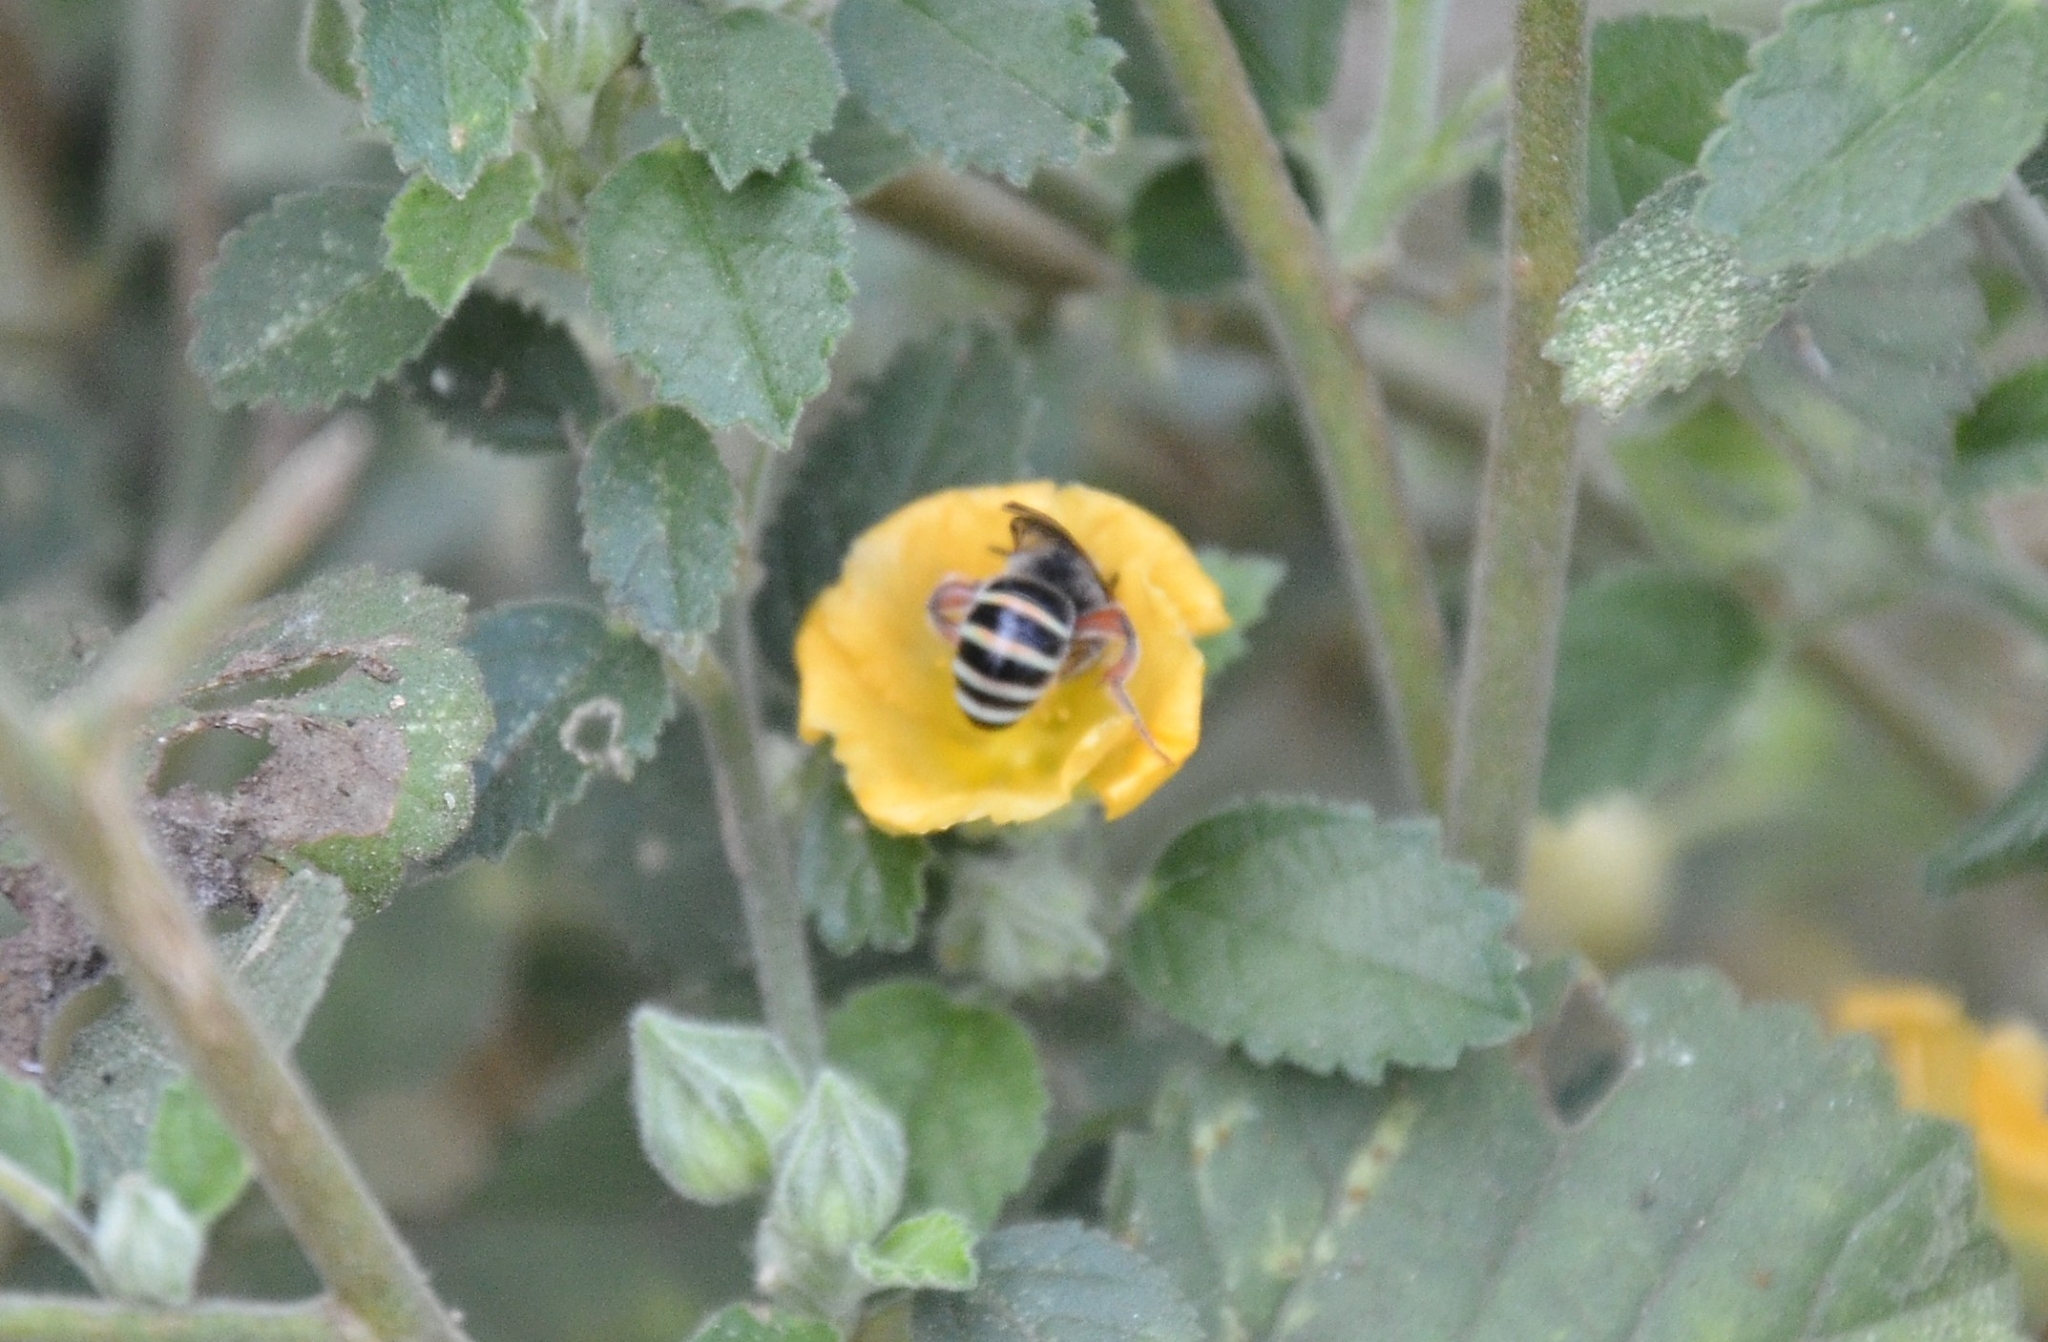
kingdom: Animalia
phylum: Arthropoda
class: Insecta
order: Hymenoptera
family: Halictidae
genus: Nomia
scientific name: Nomia westwoodi
